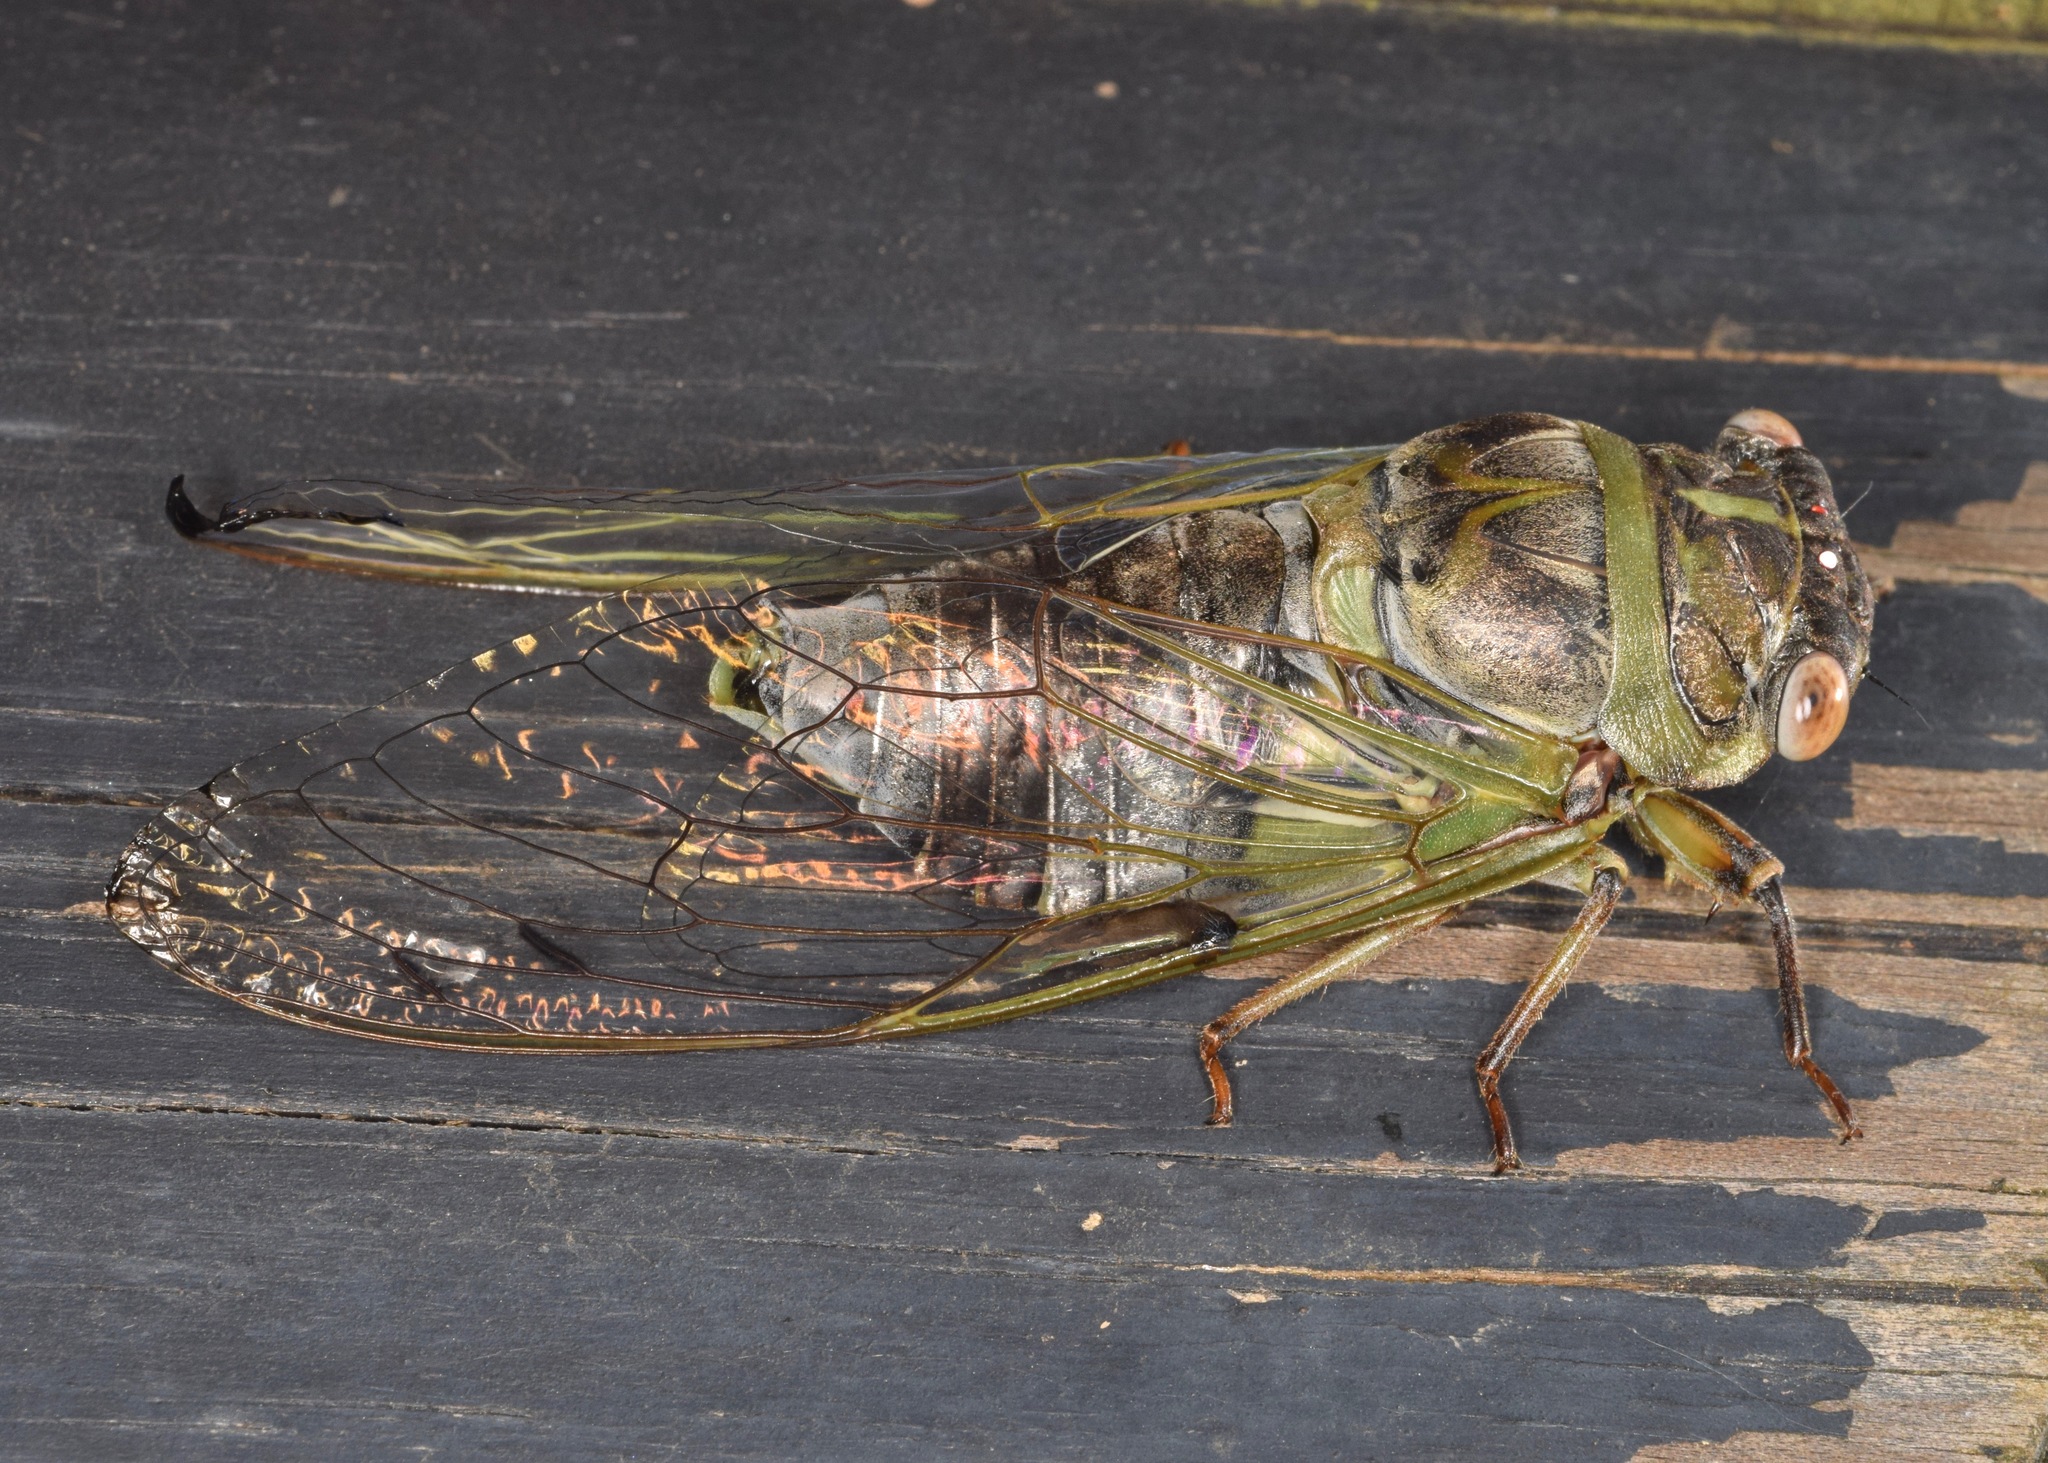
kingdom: Animalia
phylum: Arthropoda
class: Insecta
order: Hemiptera
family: Cicadidae
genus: Diceroprocta
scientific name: Diceroprocta grossa
